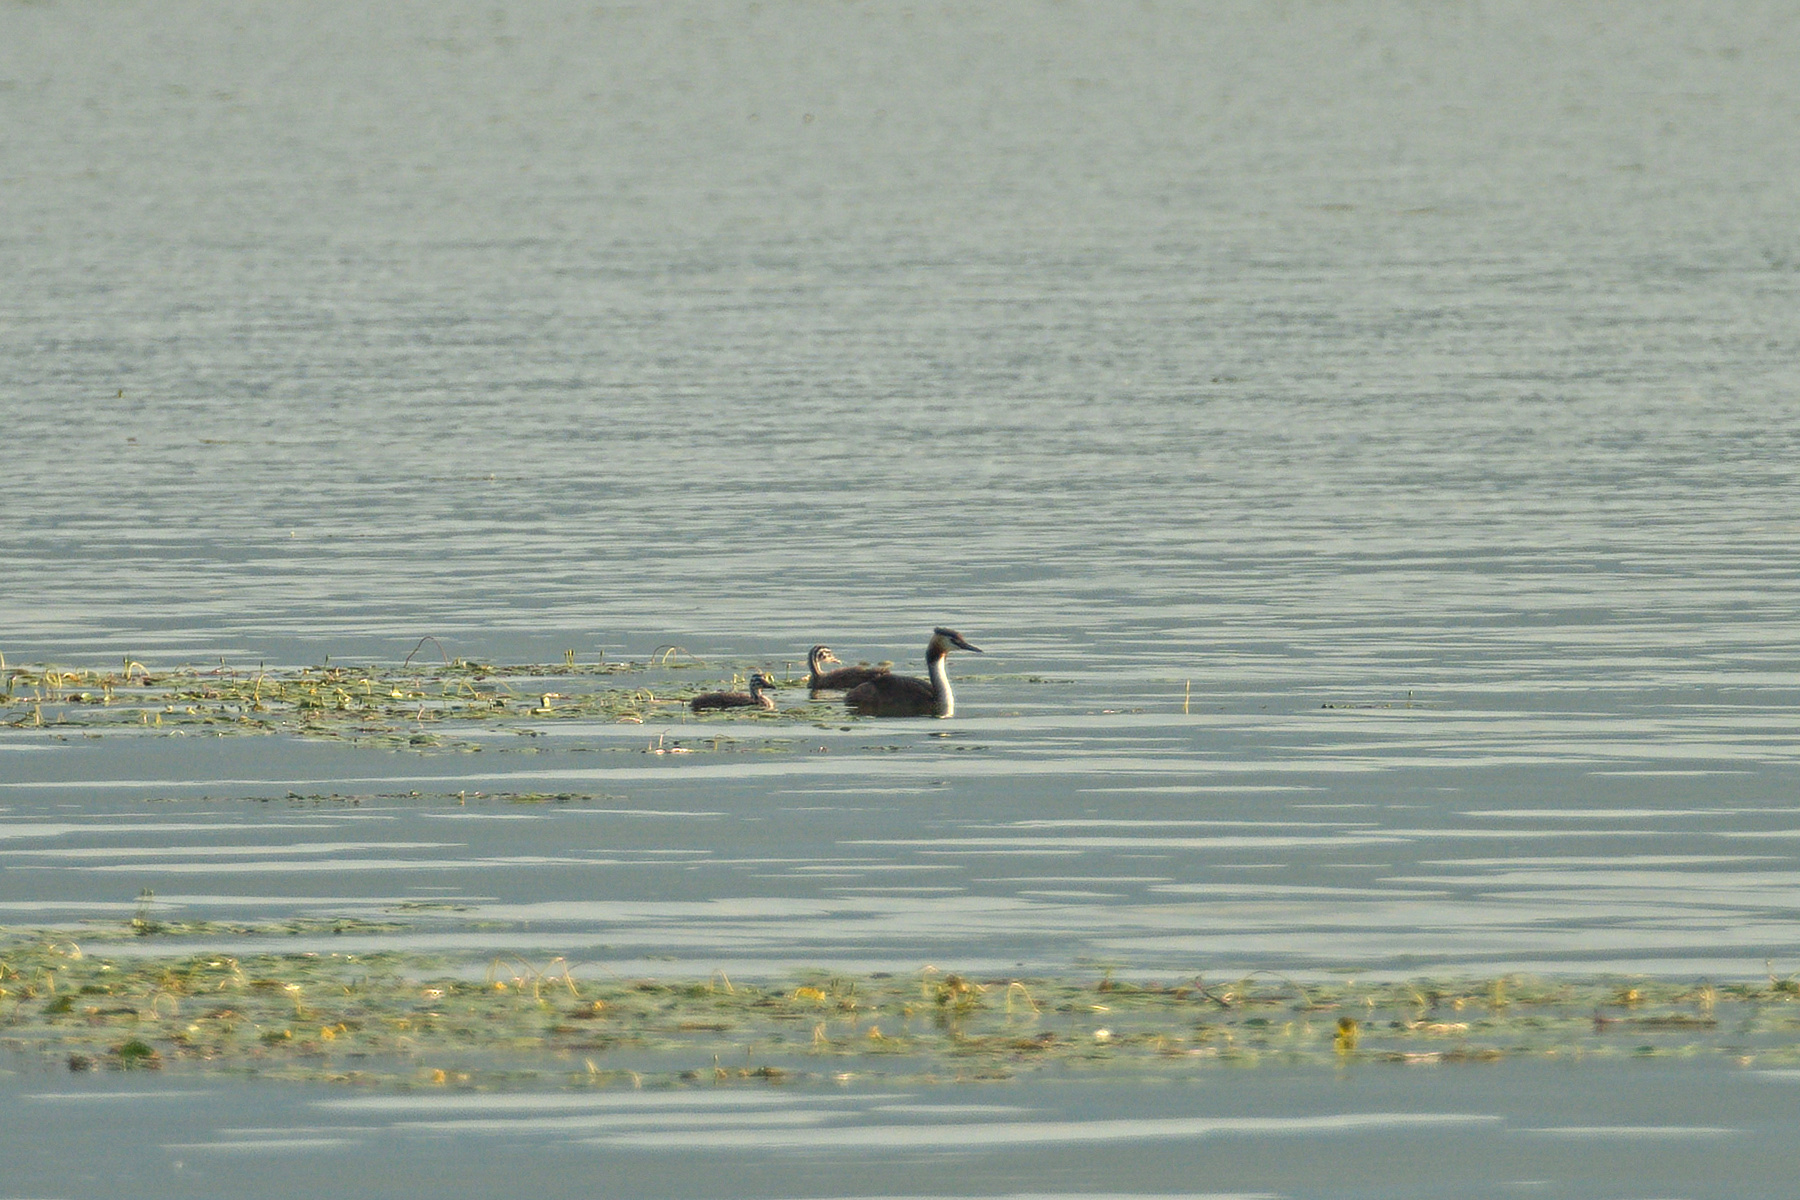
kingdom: Animalia
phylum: Chordata
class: Aves
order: Podicipediformes
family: Podicipedidae
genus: Podiceps
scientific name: Podiceps cristatus
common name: Great crested grebe
